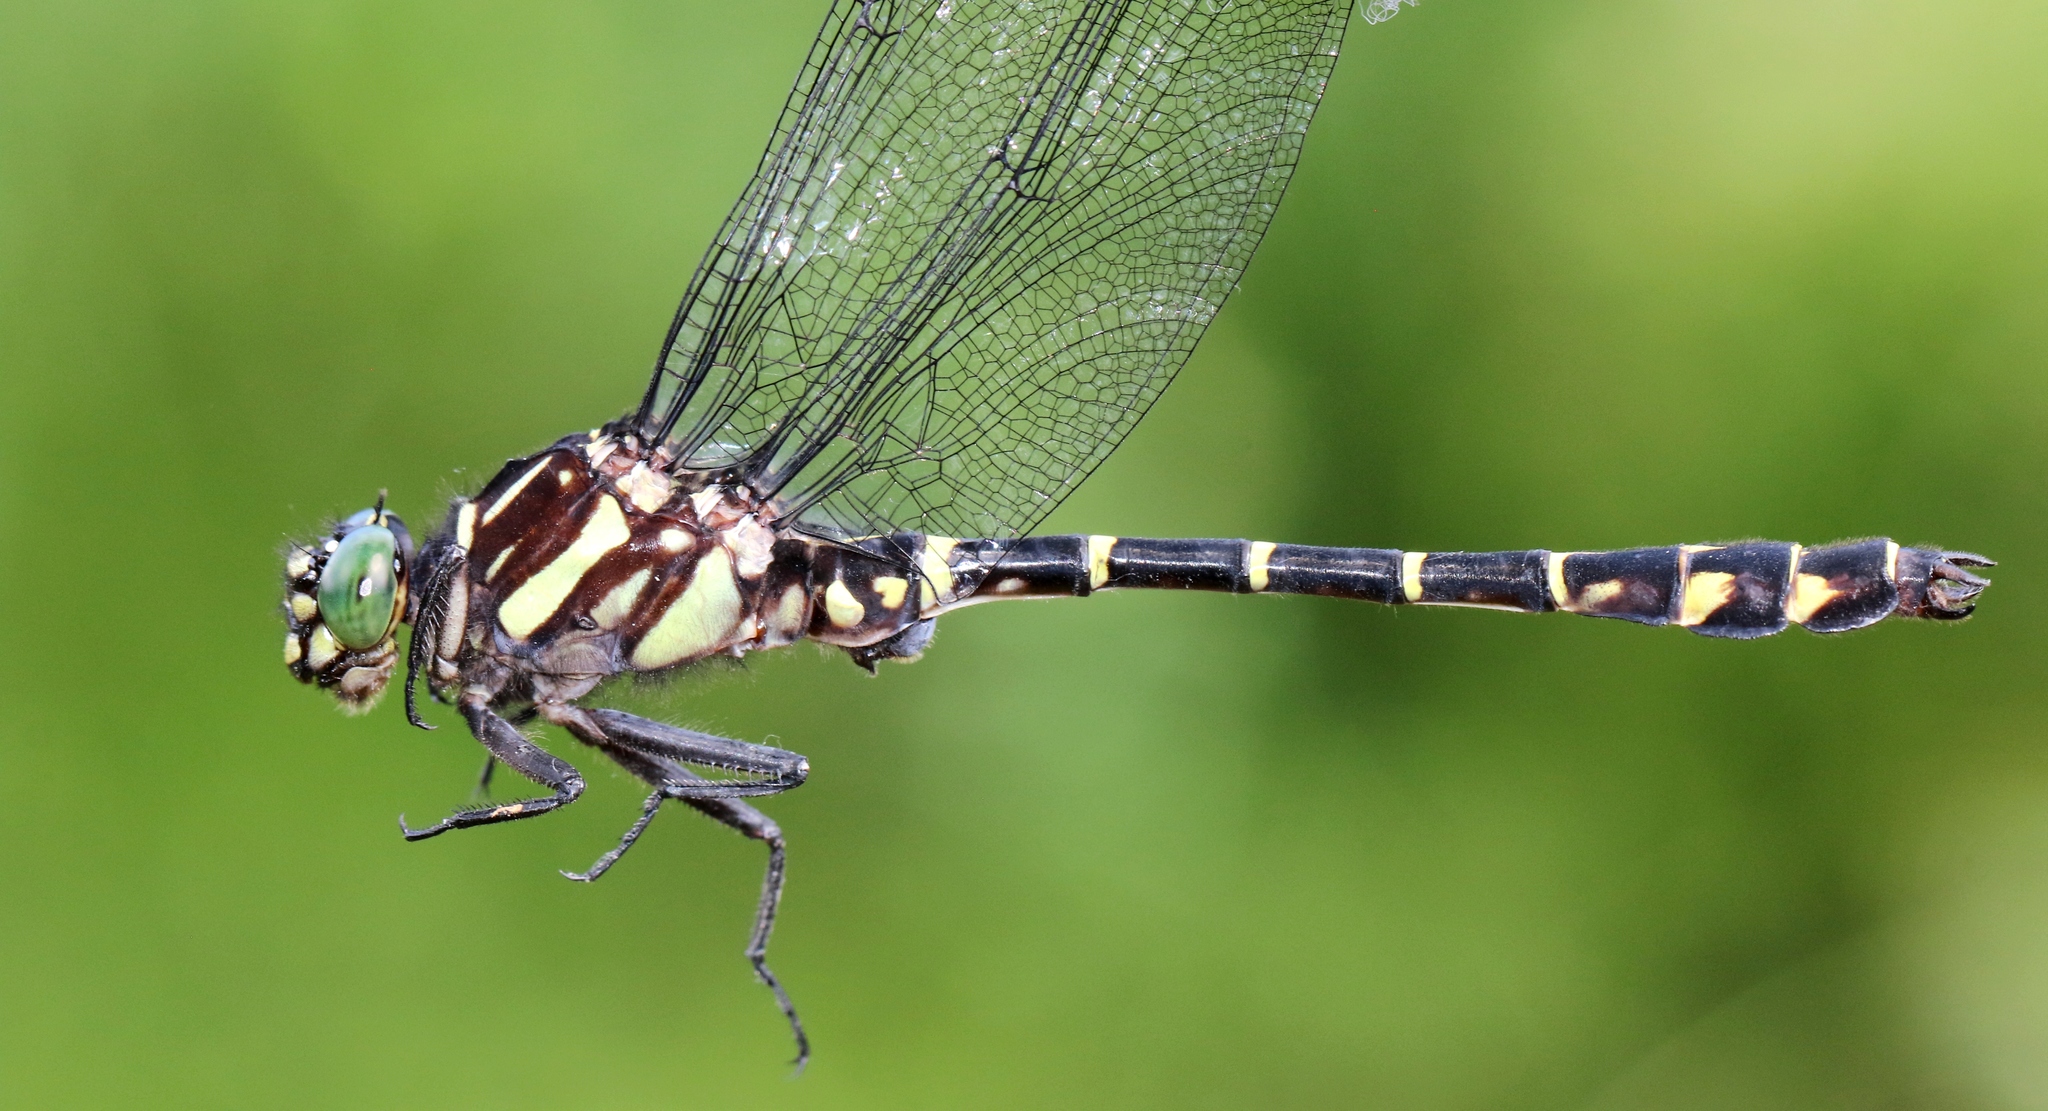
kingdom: Animalia
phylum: Arthropoda
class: Insecta
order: Odonata
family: Gomphidae
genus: Stylurus
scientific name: Stylurus scudderi
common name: Zebra clubtail
